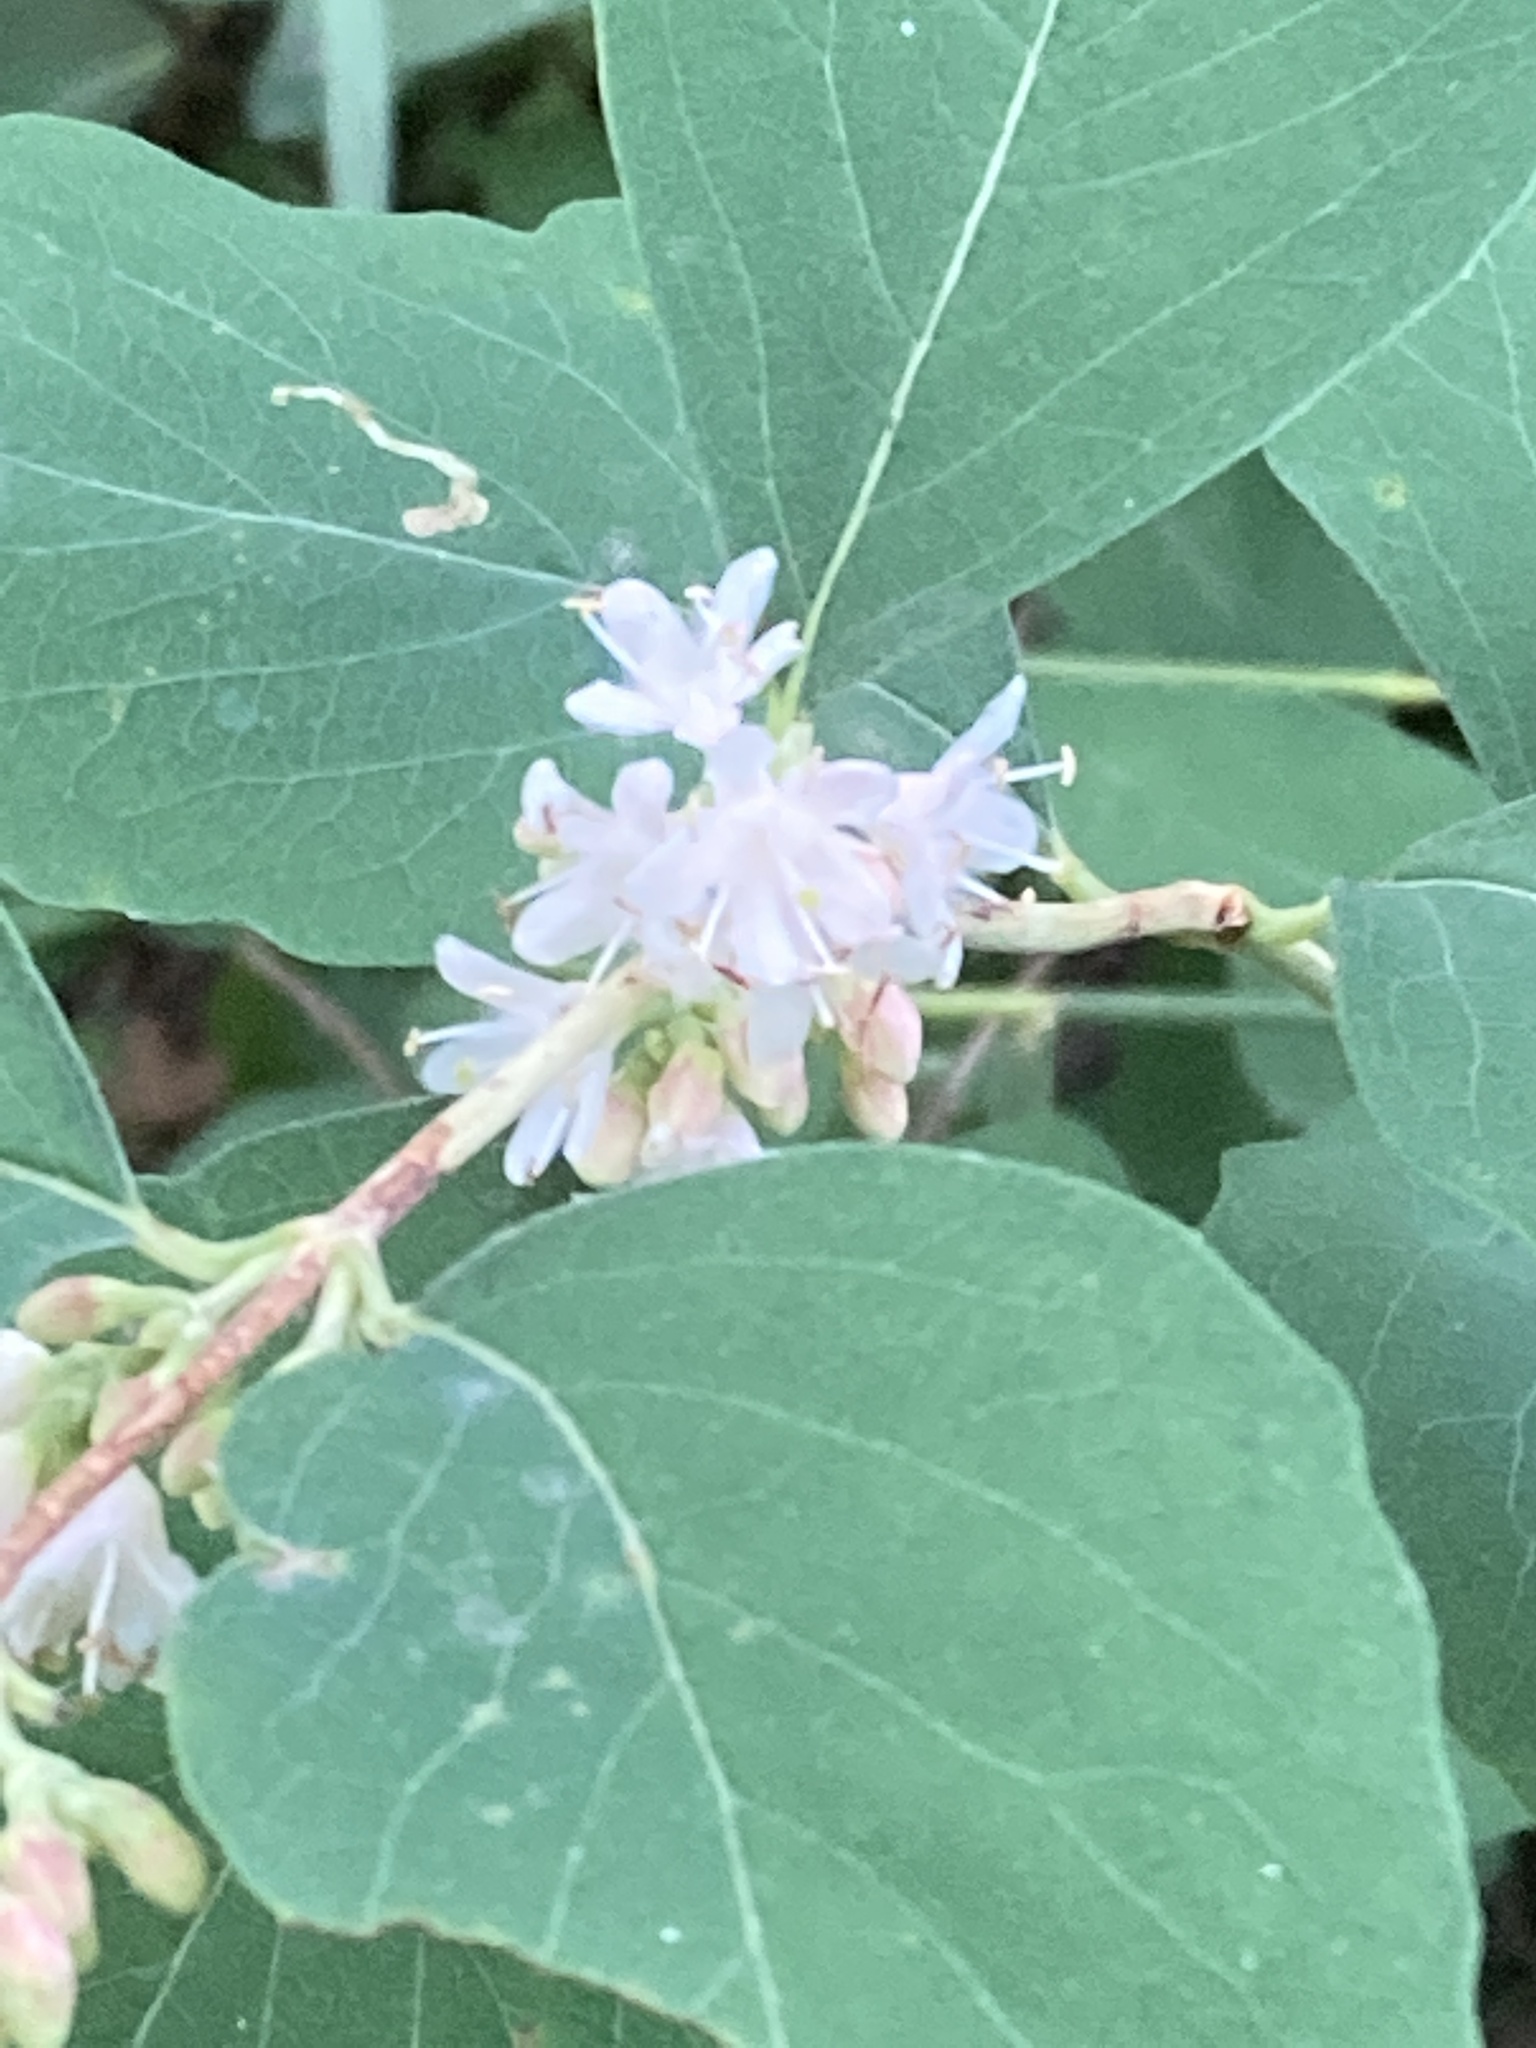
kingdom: Plantae
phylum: Tracheophyta
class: Magnoliopsida
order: Dipsacales
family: Caprifoliaceae
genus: Symphoricarpos
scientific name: Symphoricarpos occidentalis
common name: Wolfberry
